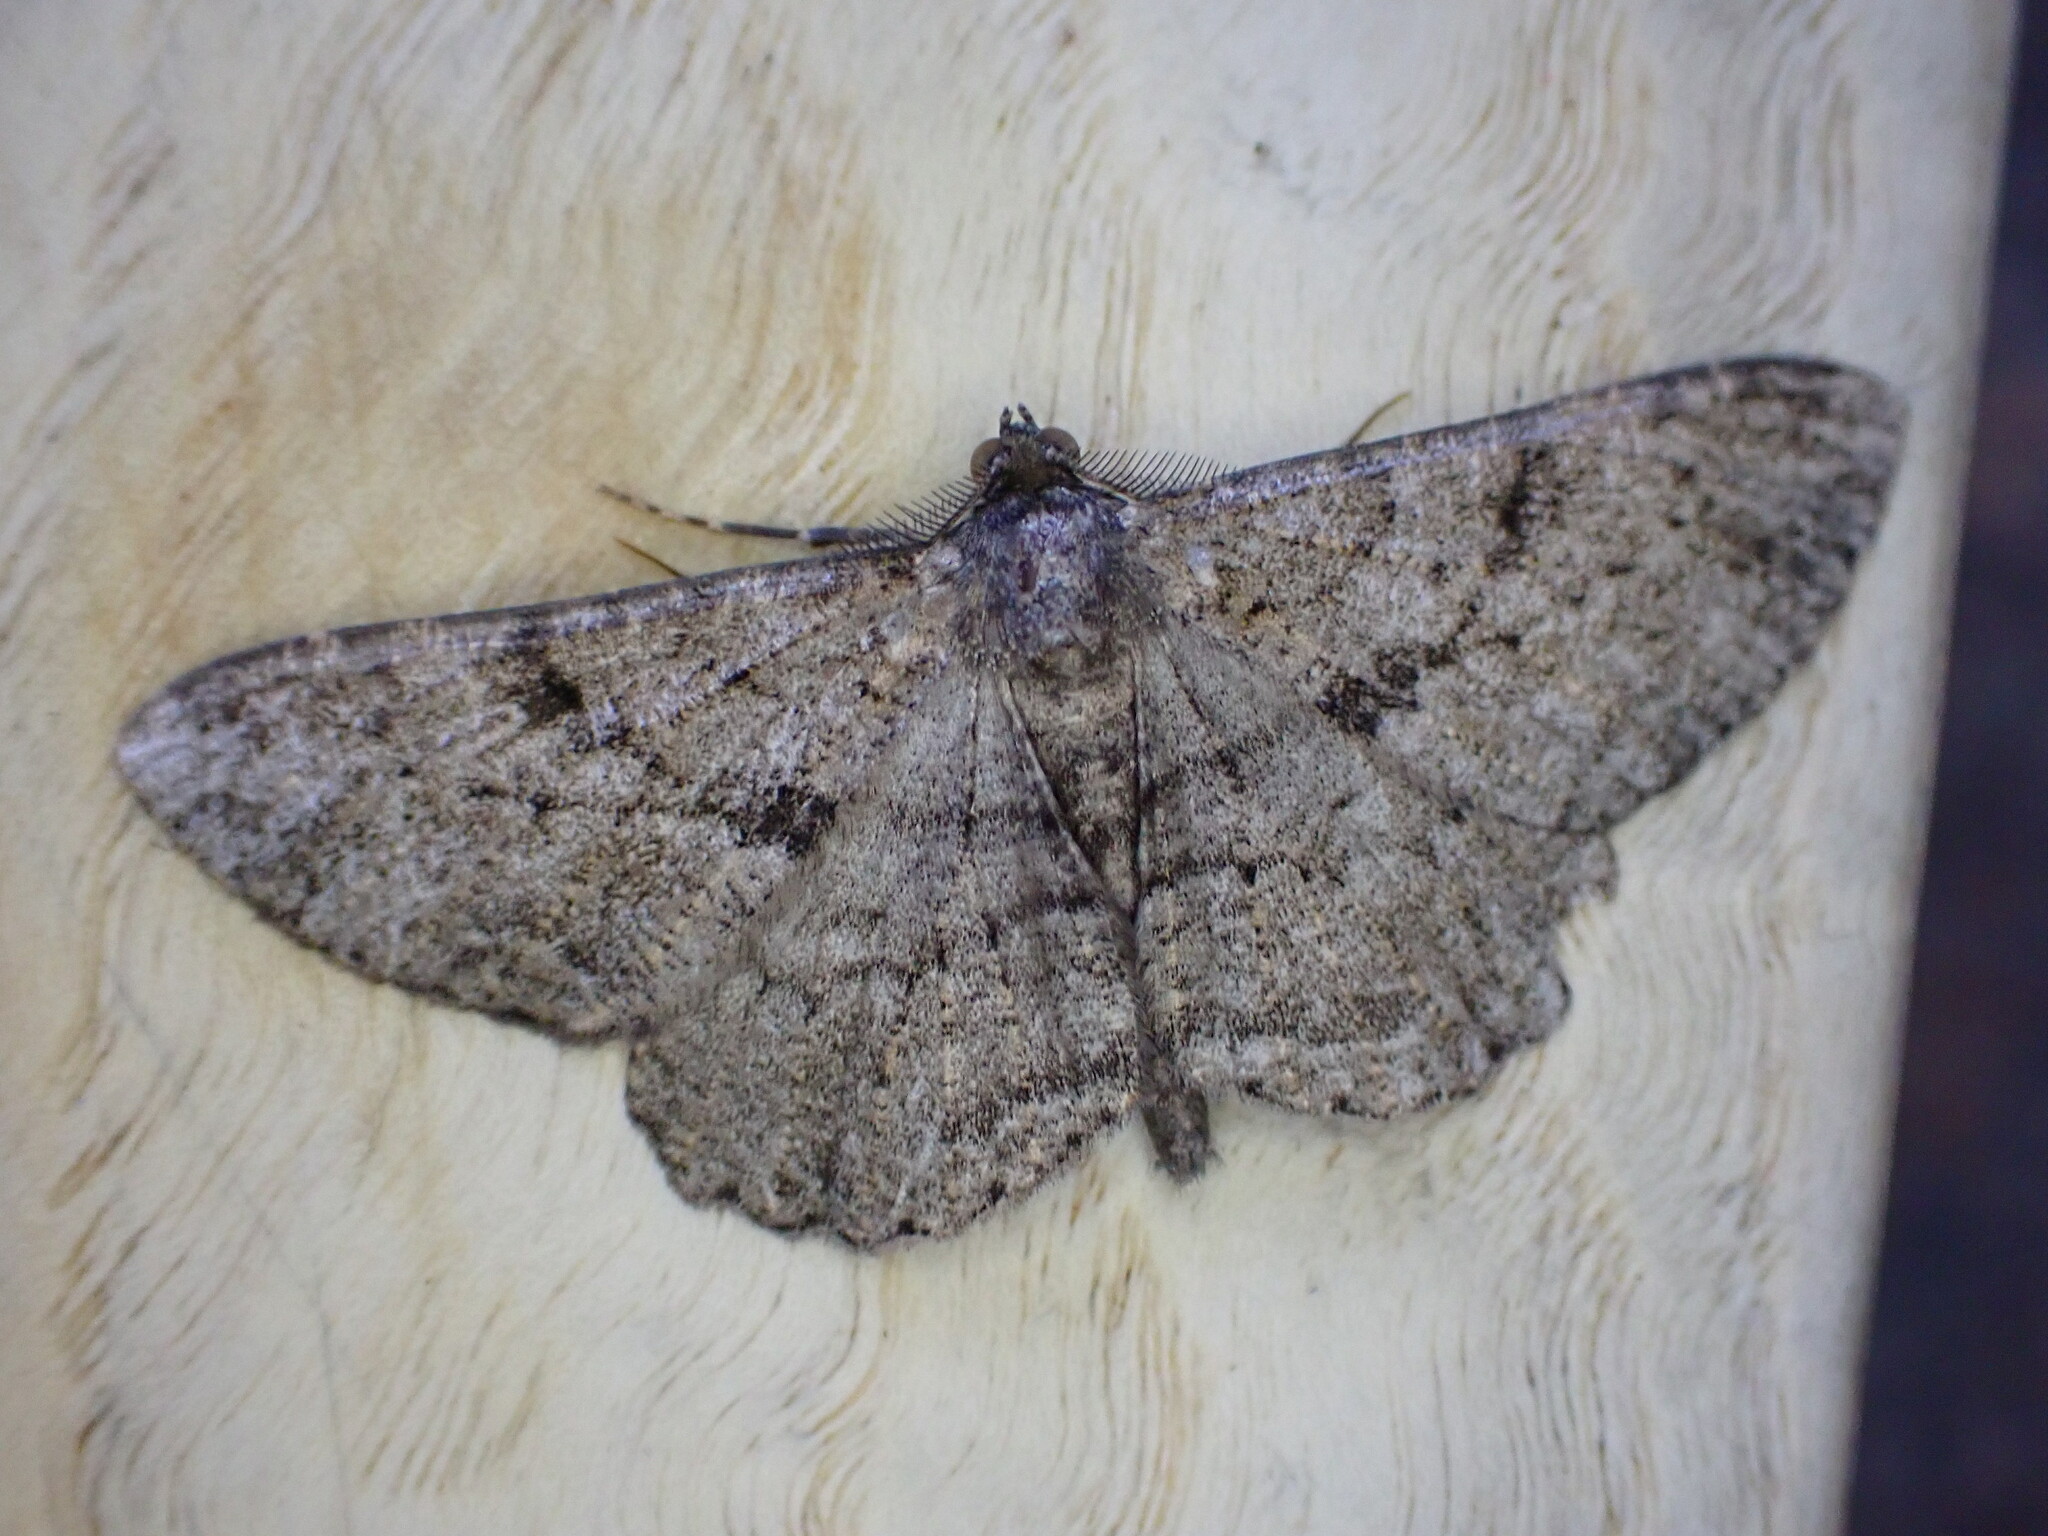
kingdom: Animalia
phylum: Arthropoda
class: Insecta
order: Lepidoptera
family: Geometridae
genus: Peribatodes
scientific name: Peribatodes rhomboidaria
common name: Willow beauty
